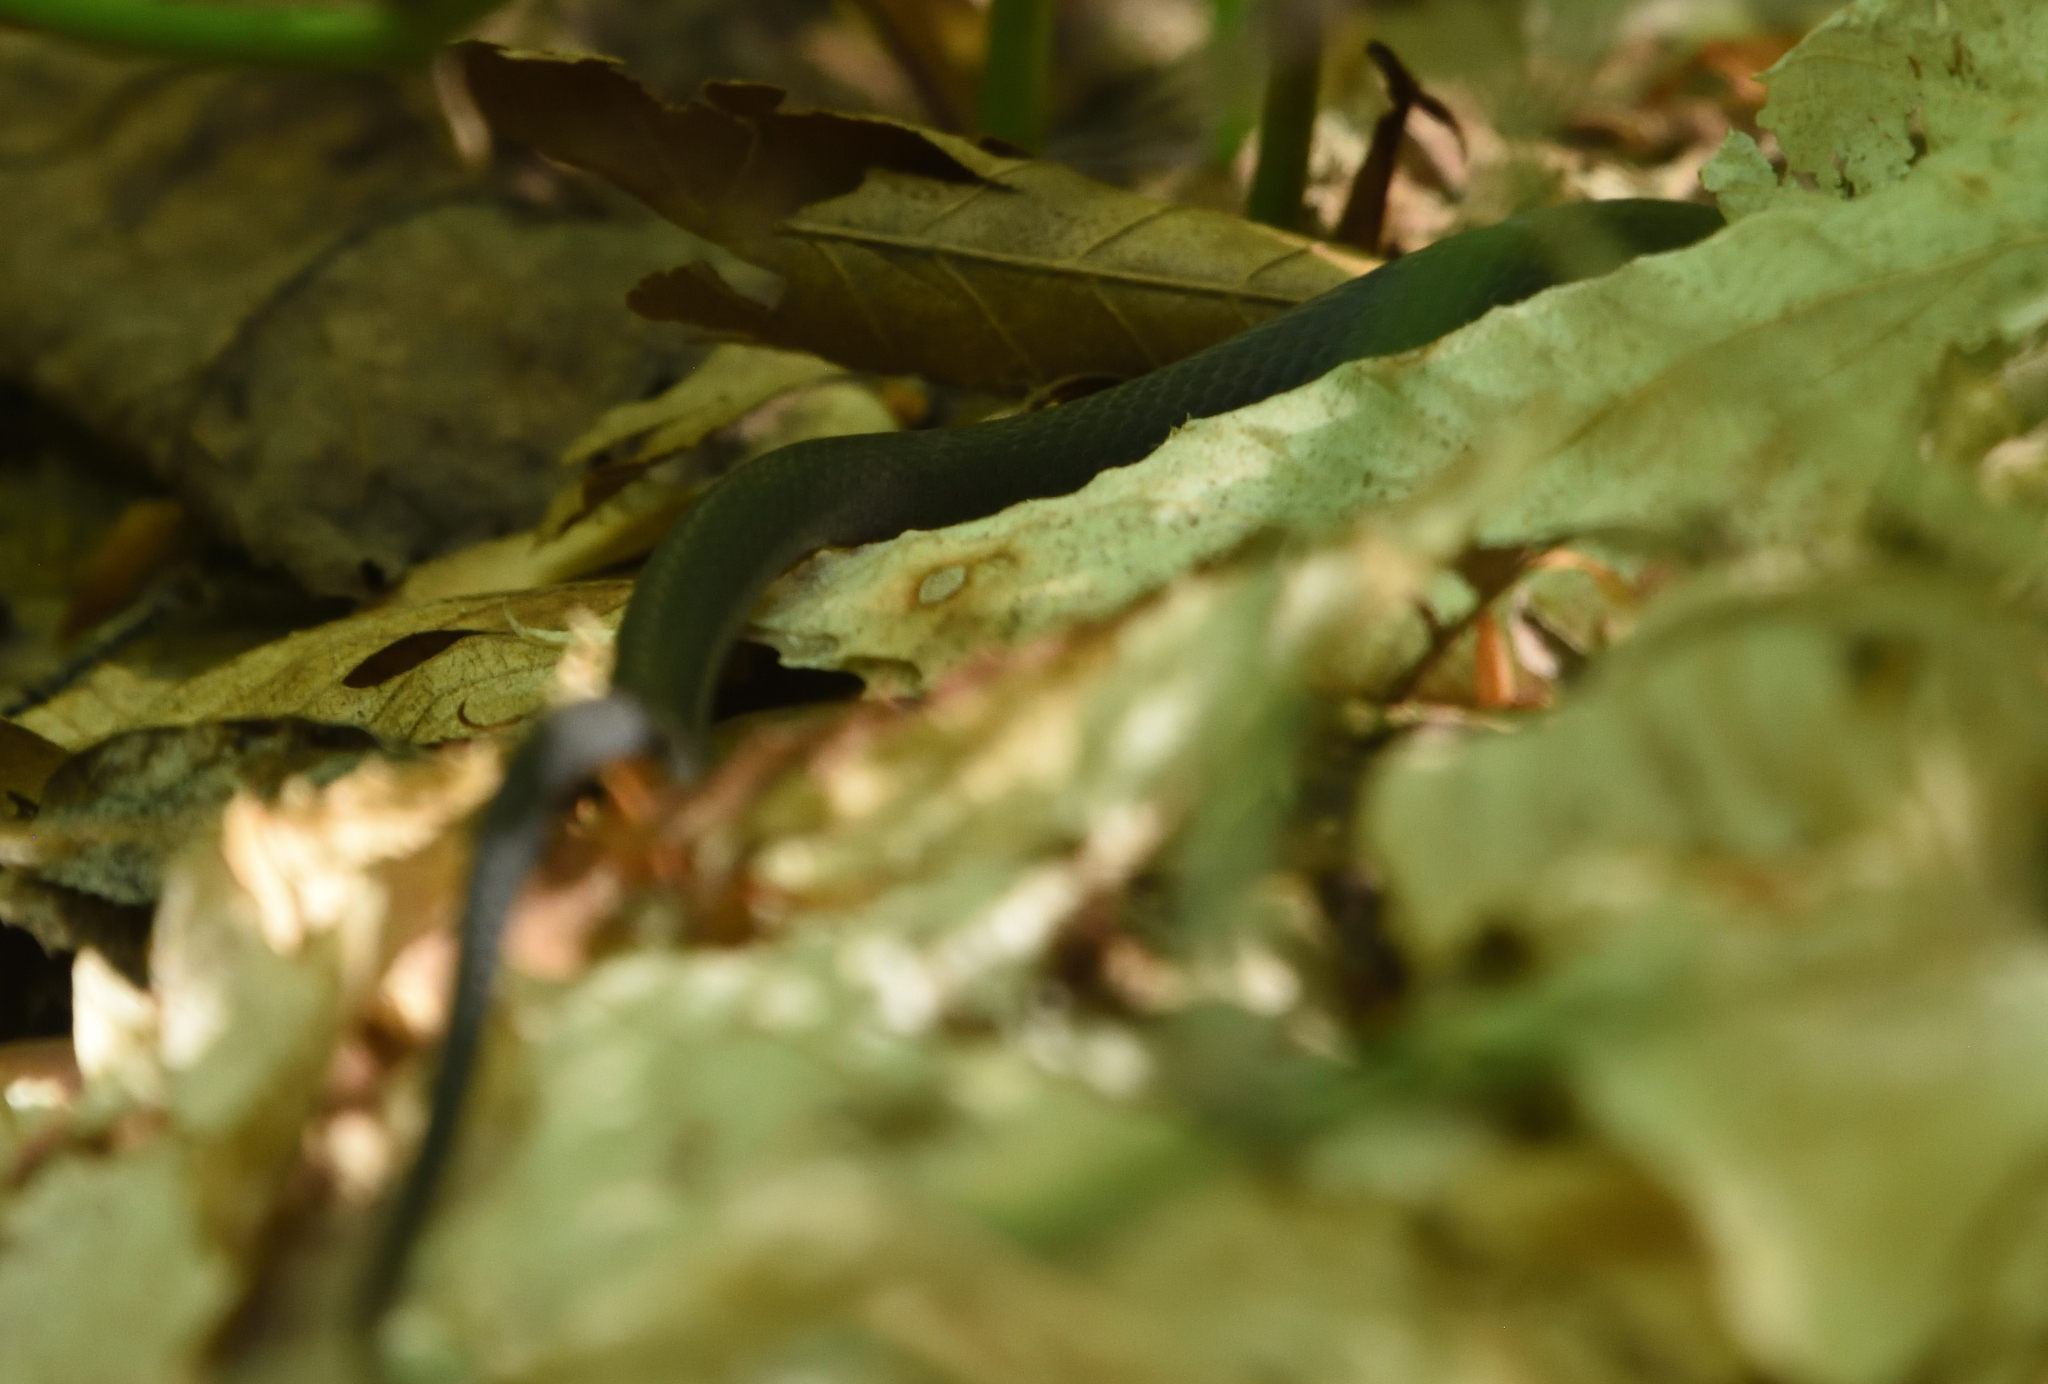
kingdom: Animalia
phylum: Chordata
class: Squamata
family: Colubridae
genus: Coluber
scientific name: Coluber constrictor
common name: Eastern racer
